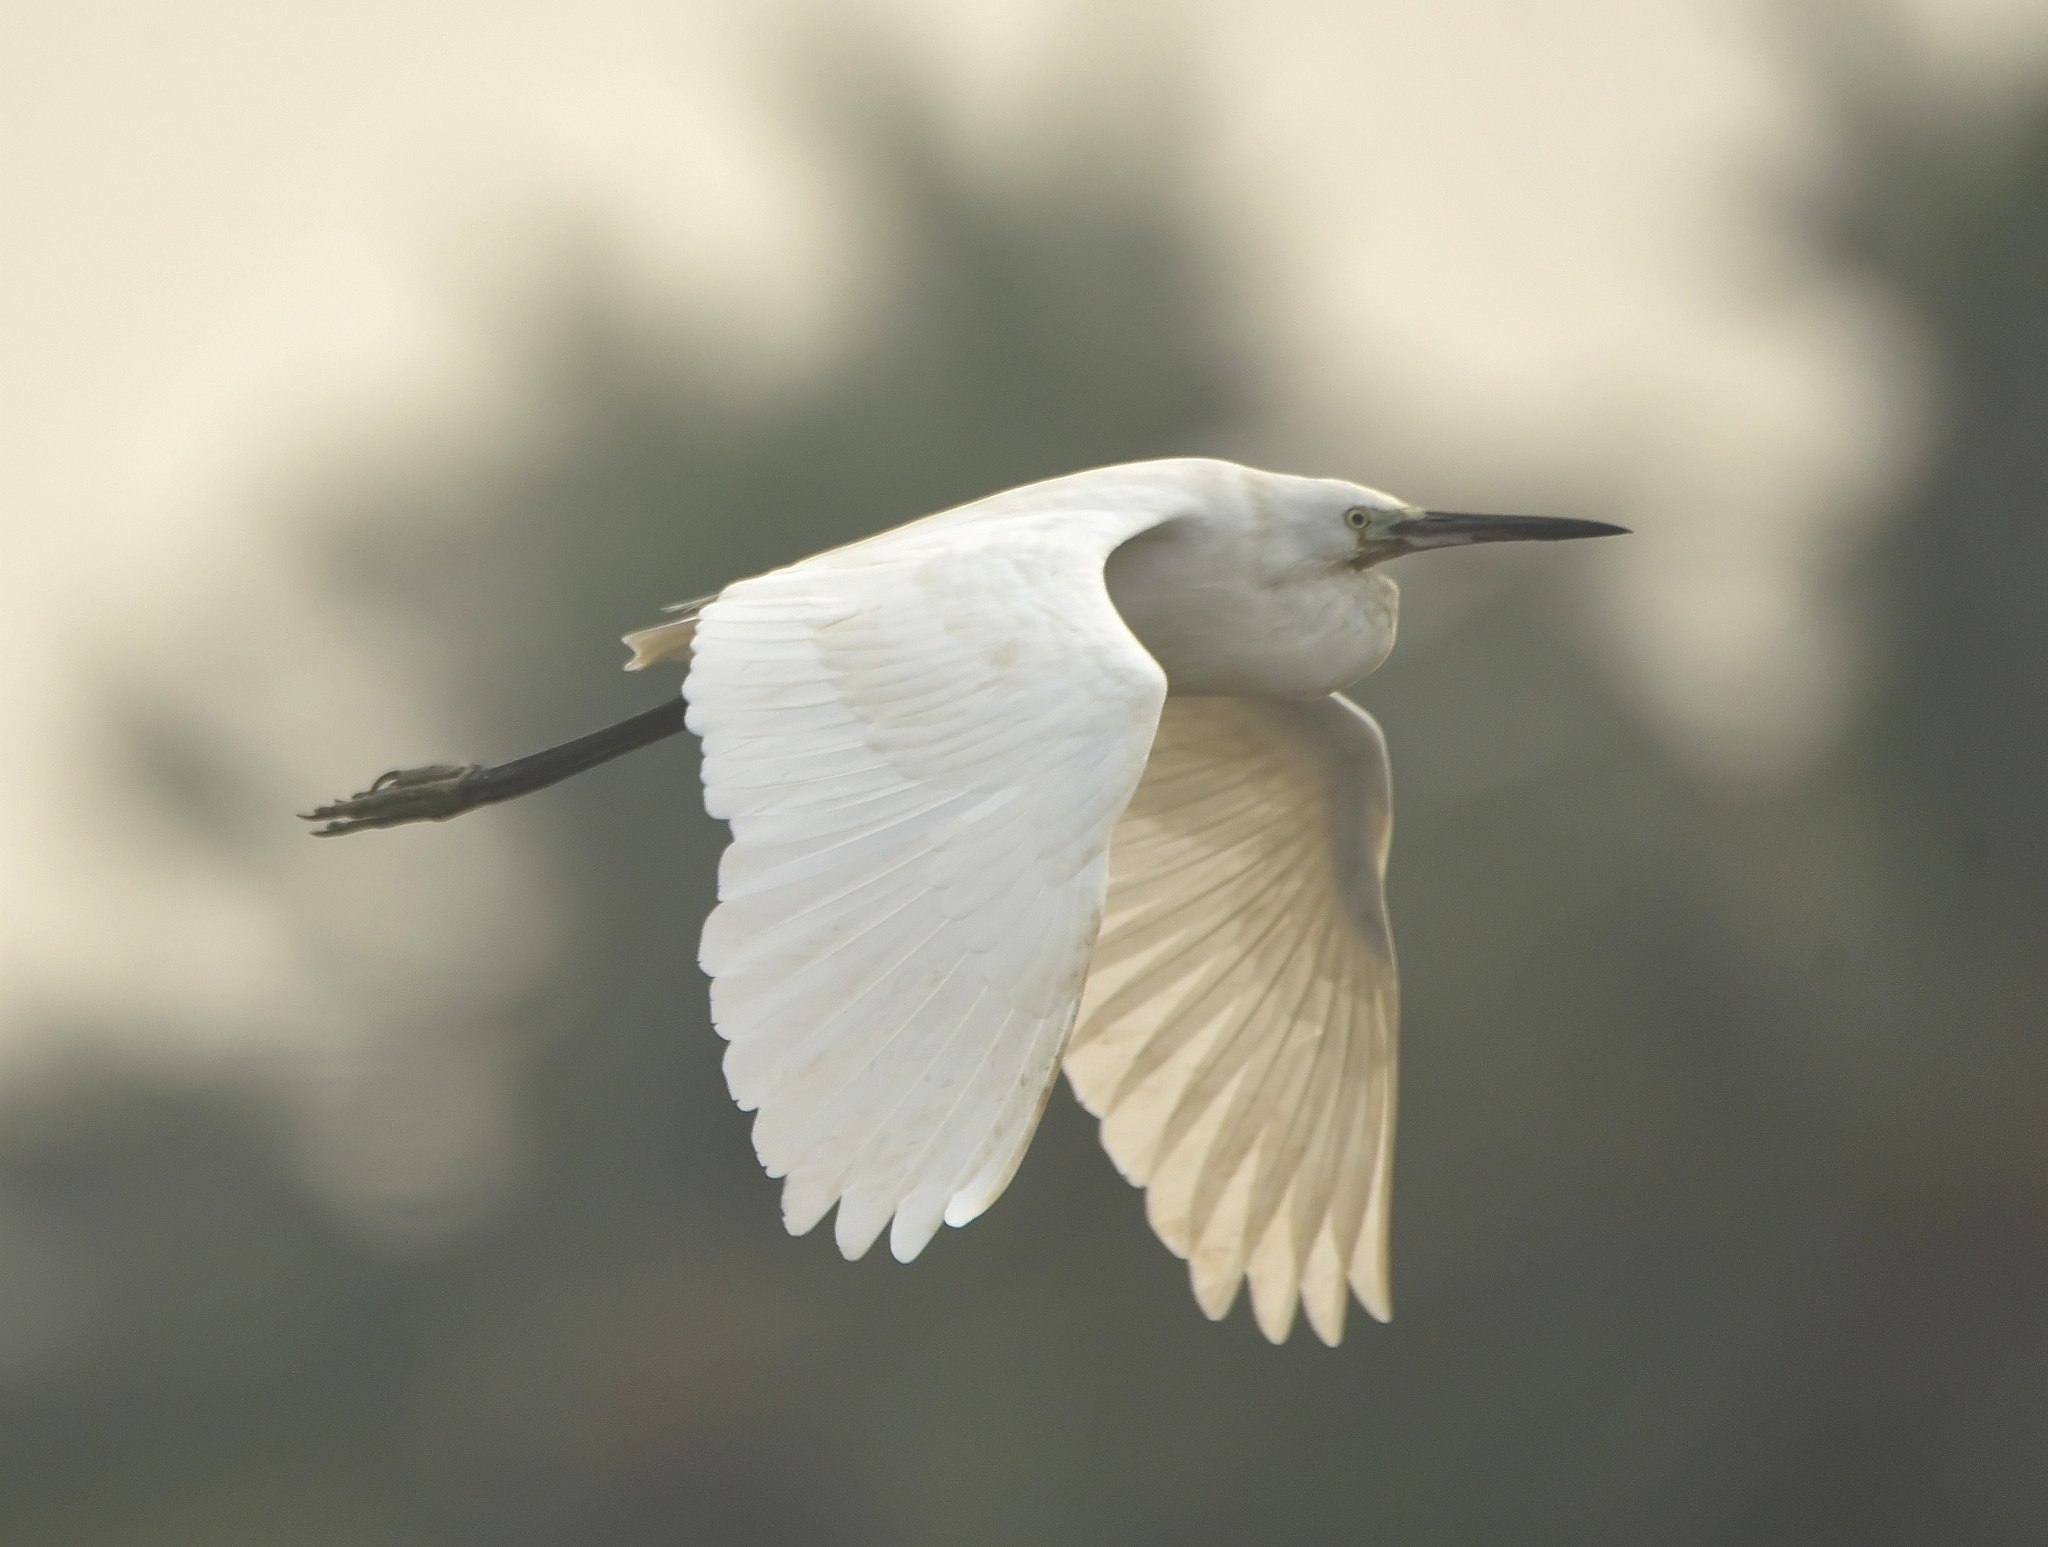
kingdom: Animalia
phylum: Chordata
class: Aves
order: Pelecaniformes
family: Ardeidae
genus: Egretta
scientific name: Egretta intermedia
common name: Intermediate egret
